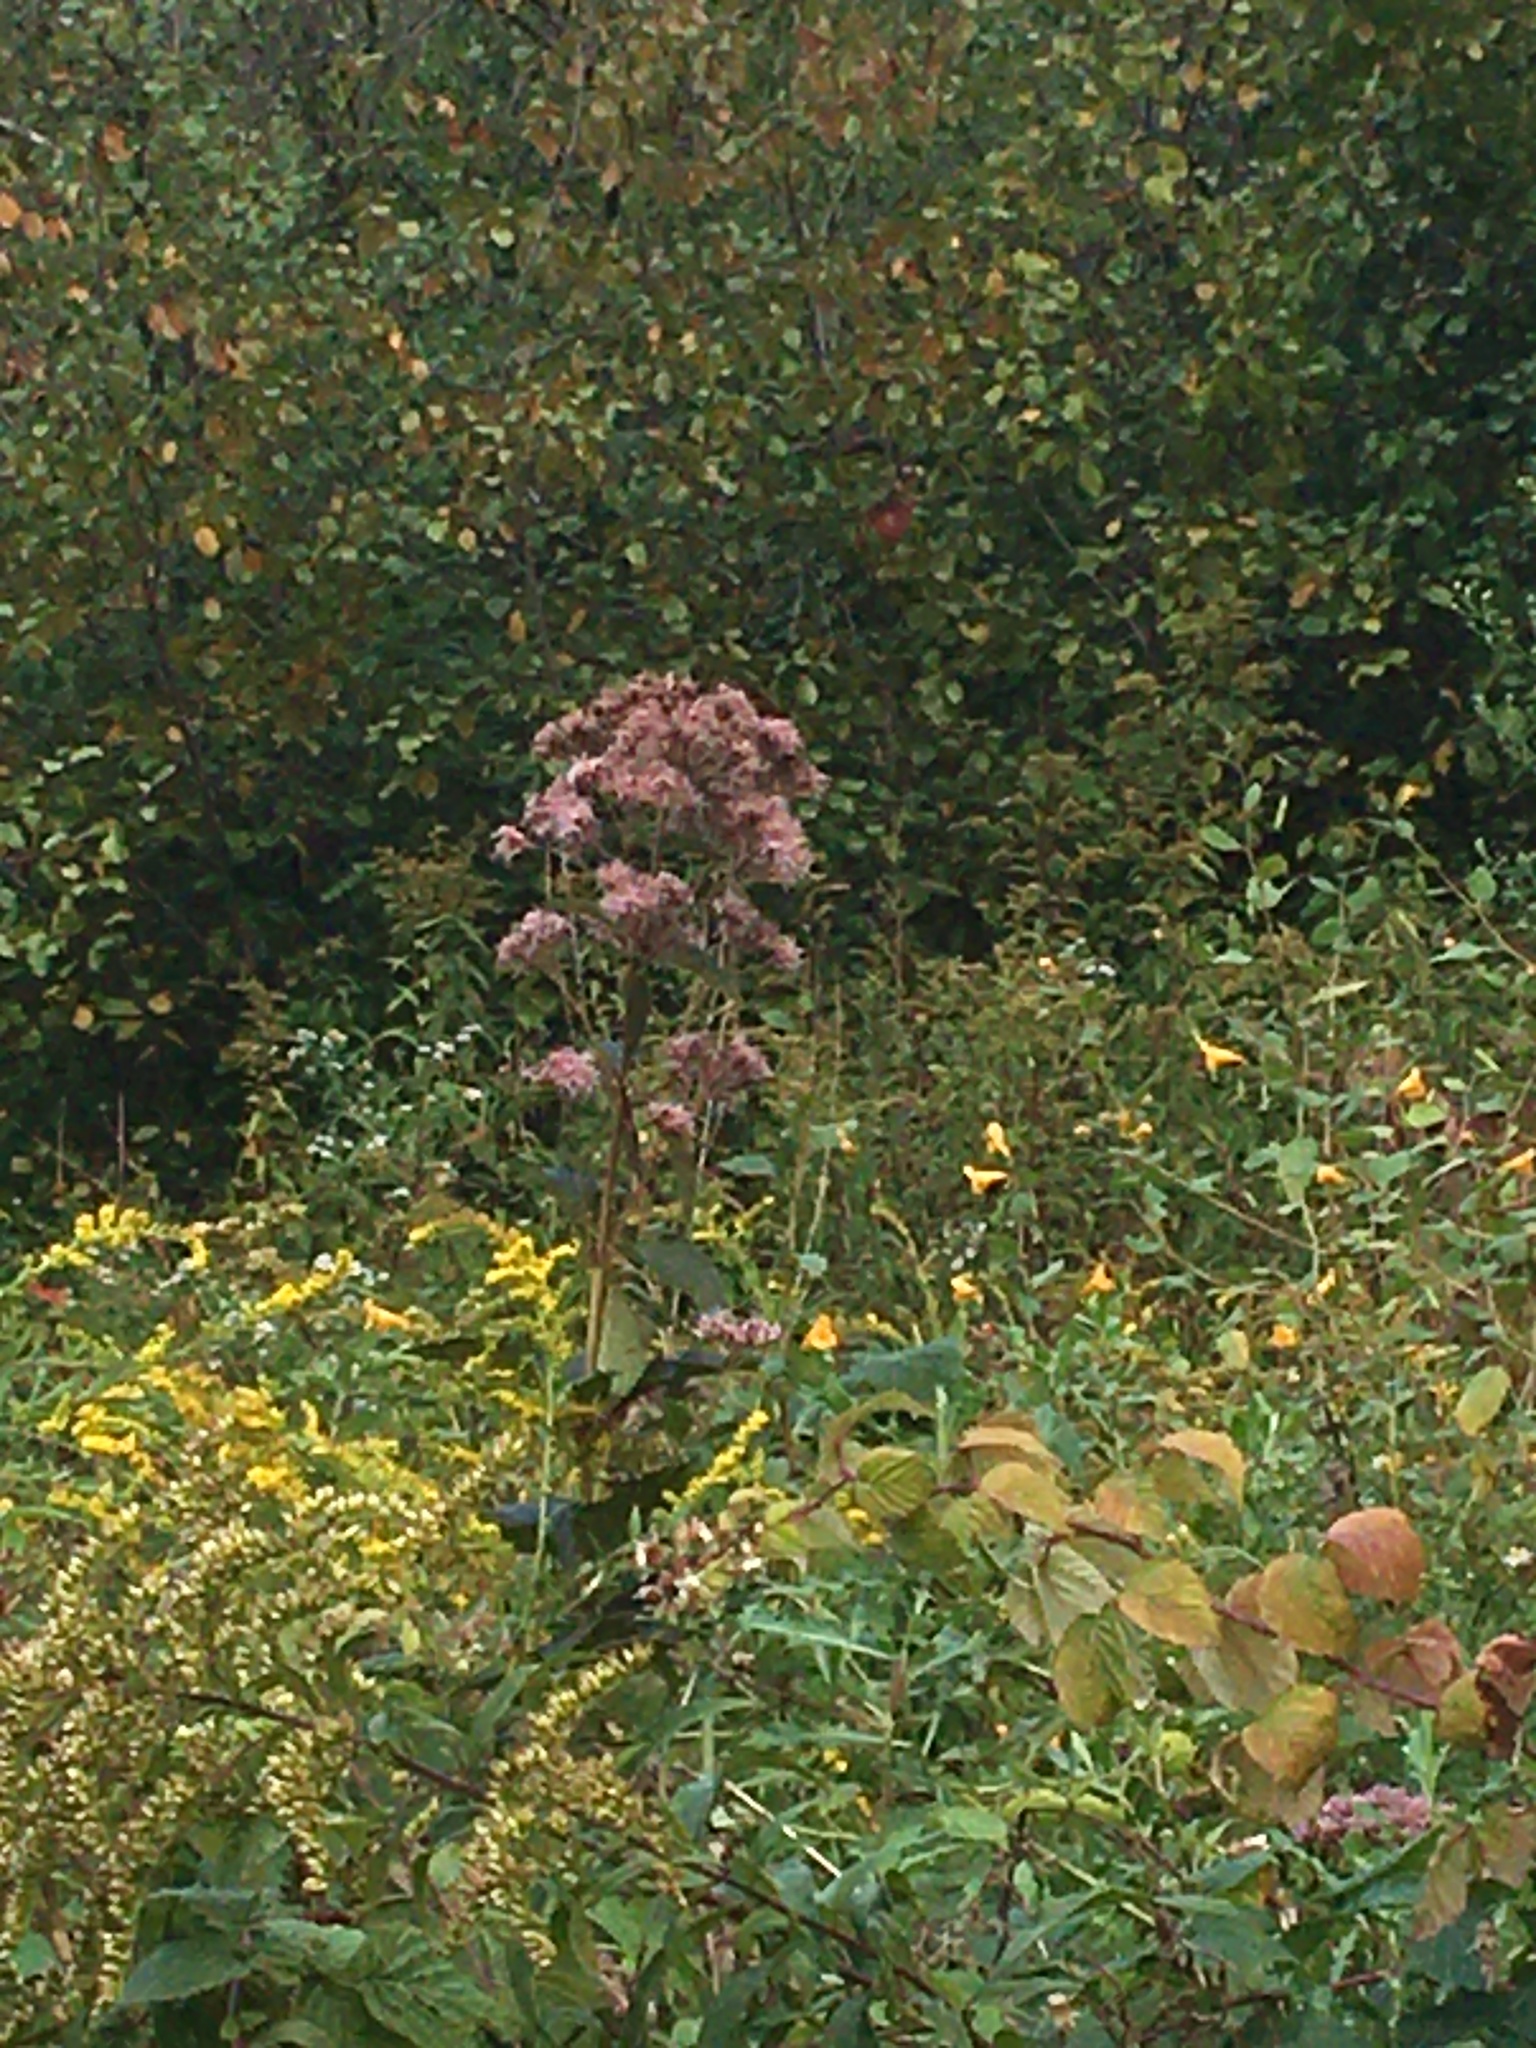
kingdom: Plantae
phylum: Tracheophyta
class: Magnoliopsida
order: Asterales
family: Asteraceae
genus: Eutrochium
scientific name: Eutrochium
